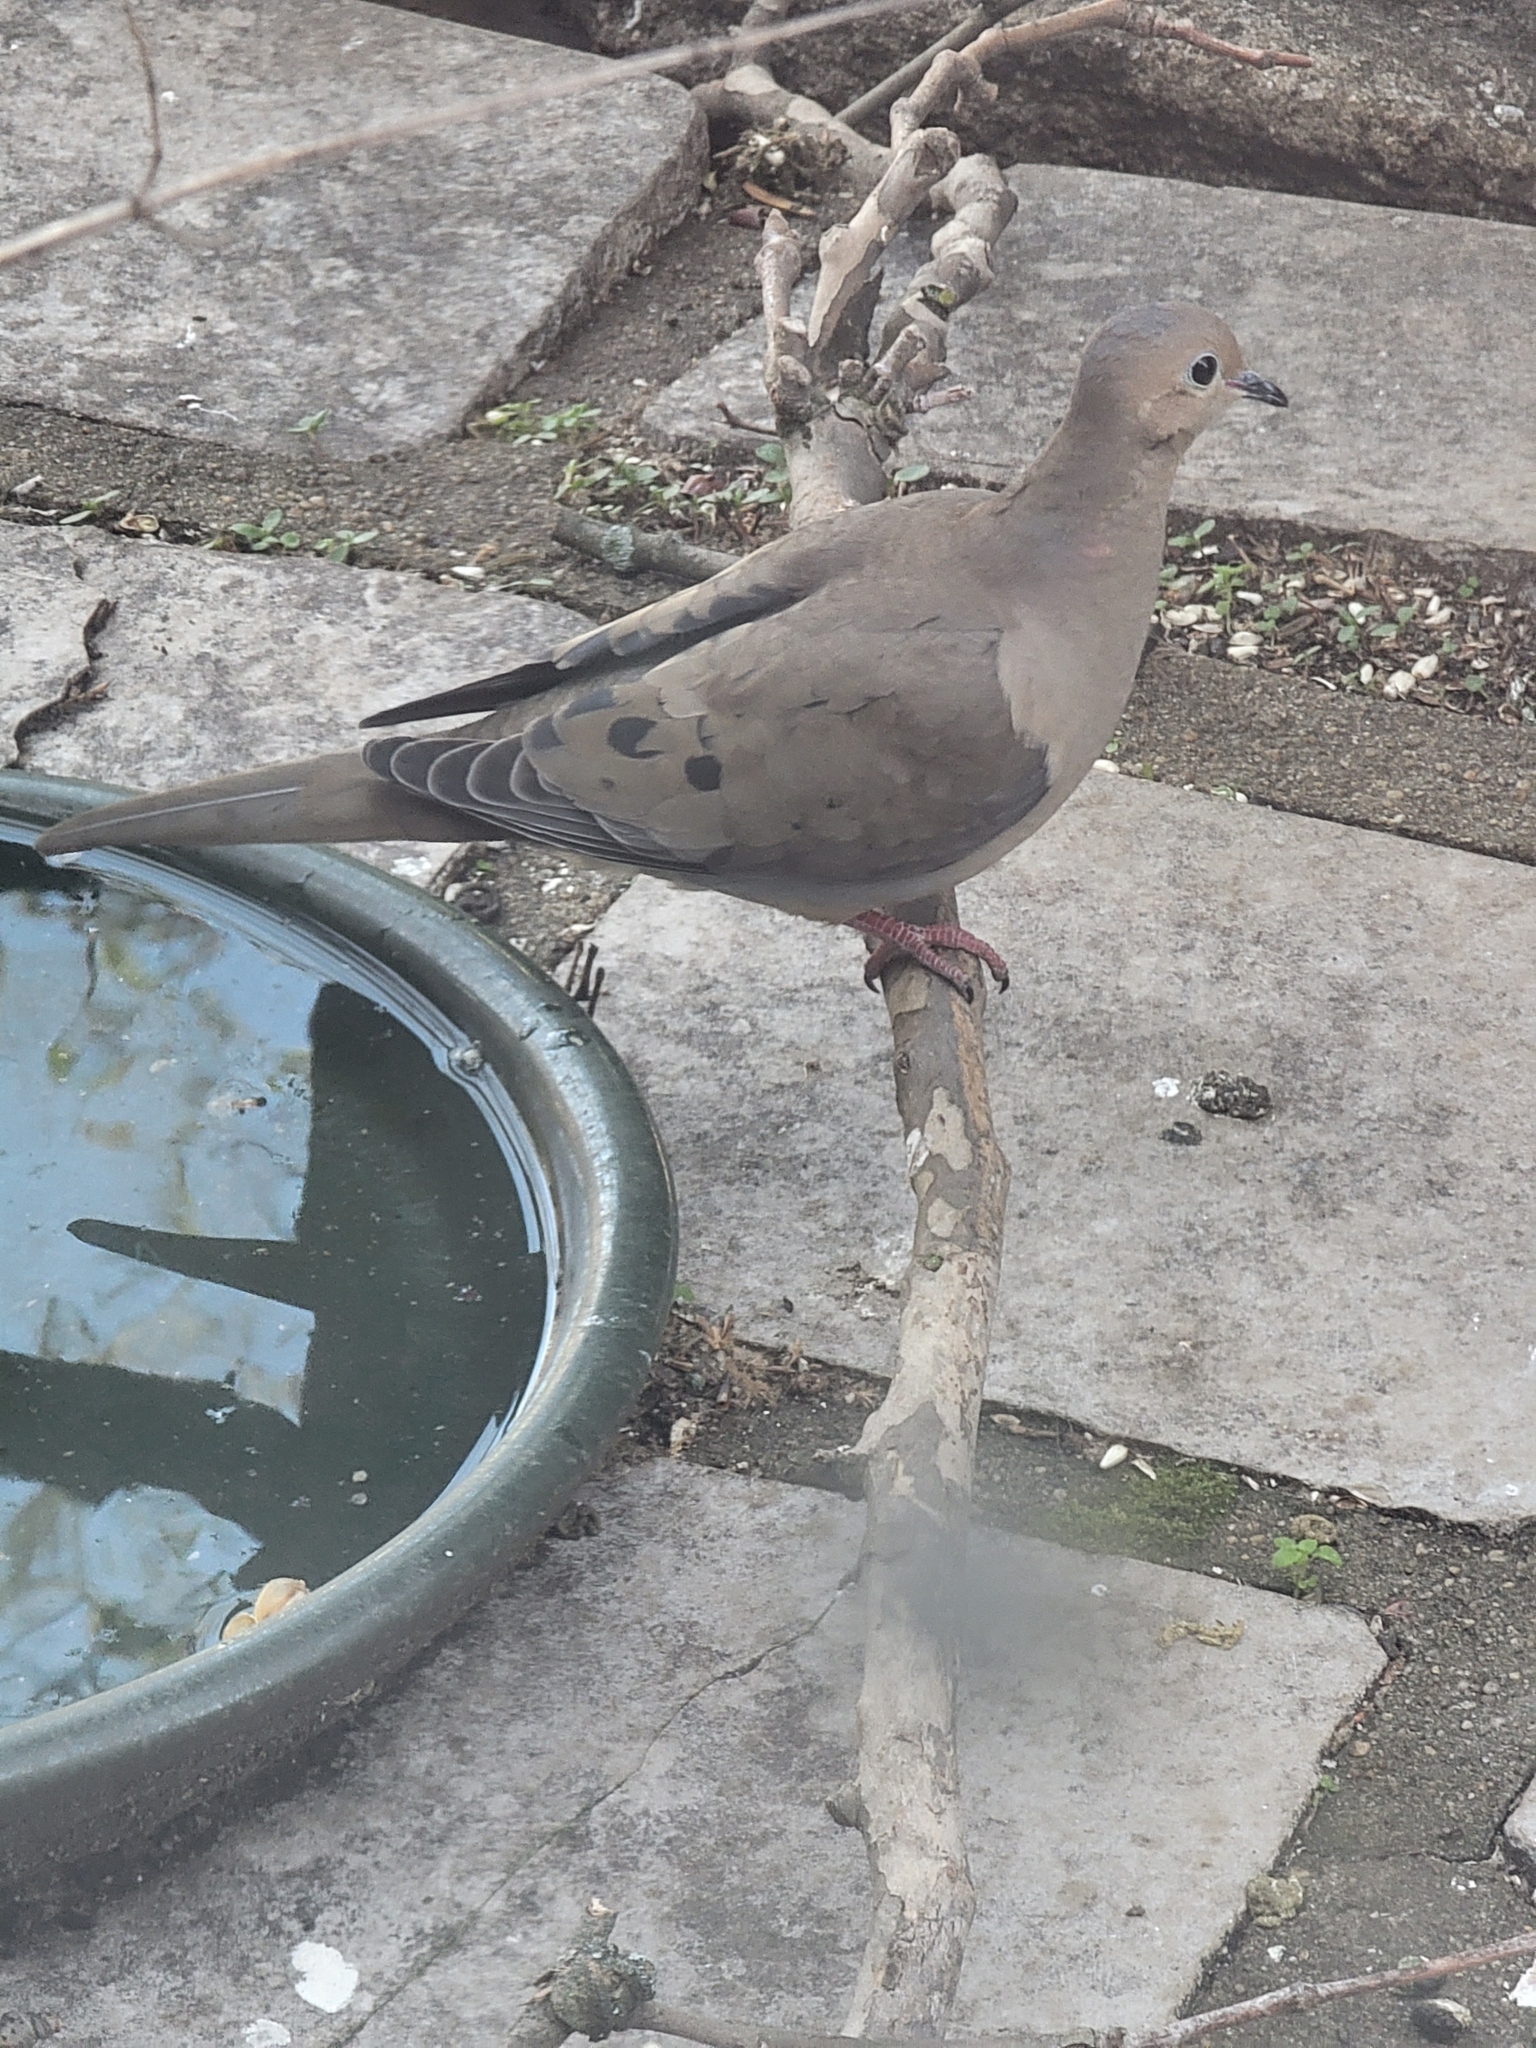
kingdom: Animalia
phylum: Chordata
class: Aves
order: Columbiformes
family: Columbidae
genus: Zenaida
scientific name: Zenaida macroura
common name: Mourning dove
